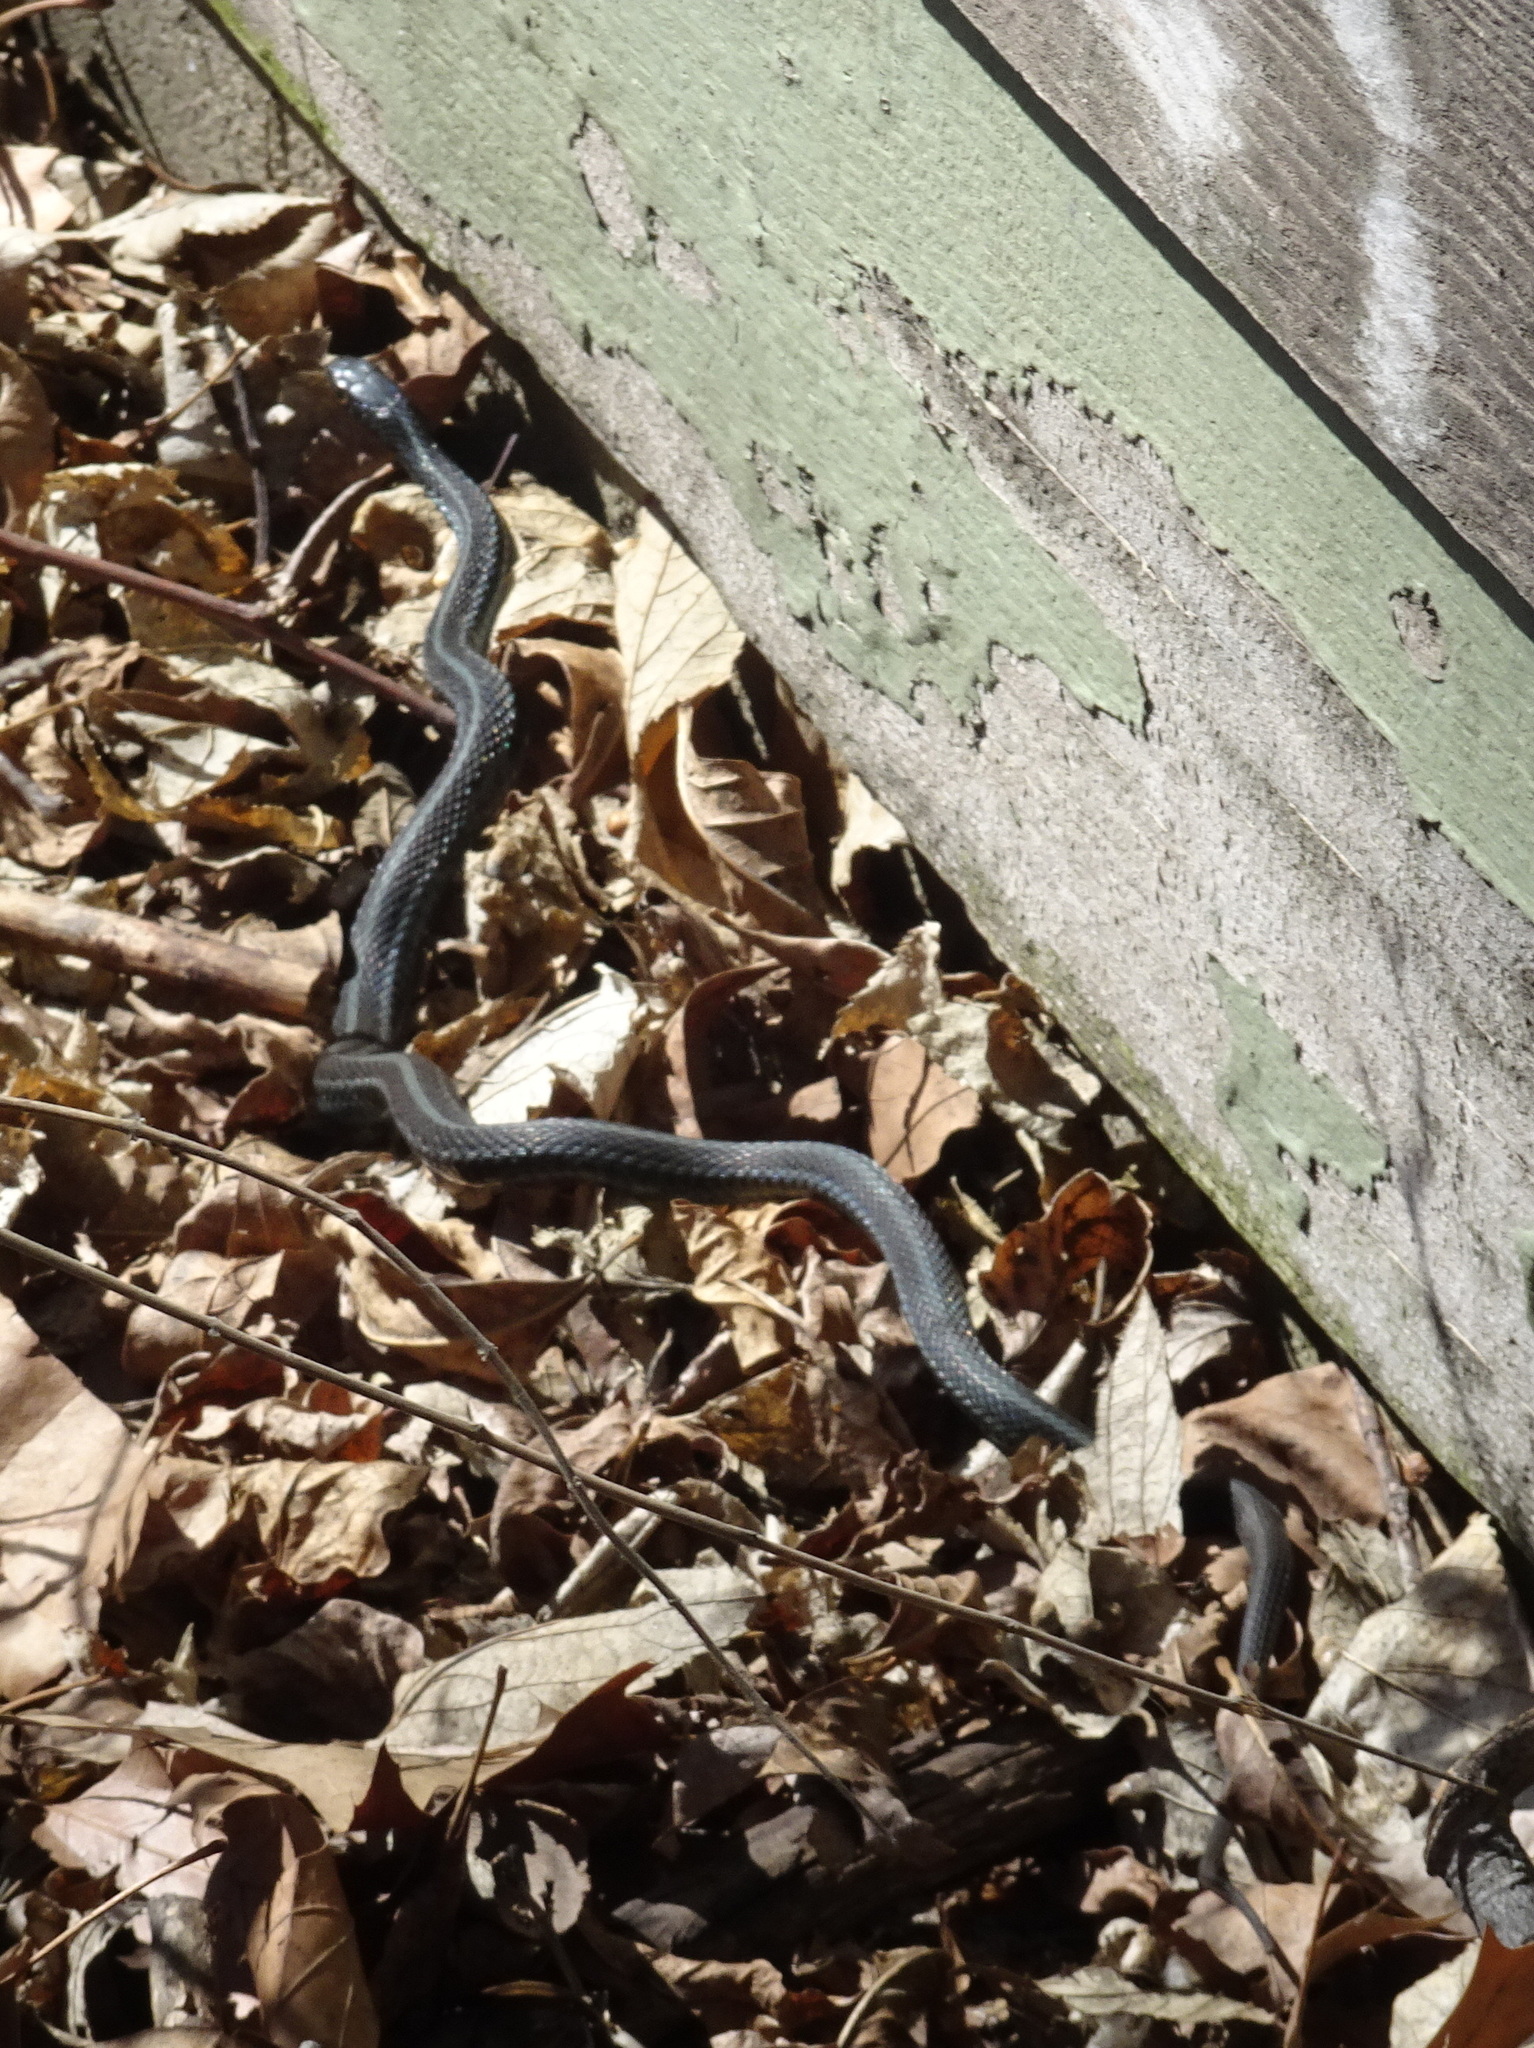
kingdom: Animalia
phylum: Chordata
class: Squamata
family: Colubridae
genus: Thamnophis
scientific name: Thamnophis sirtalis
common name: Common garter snake
